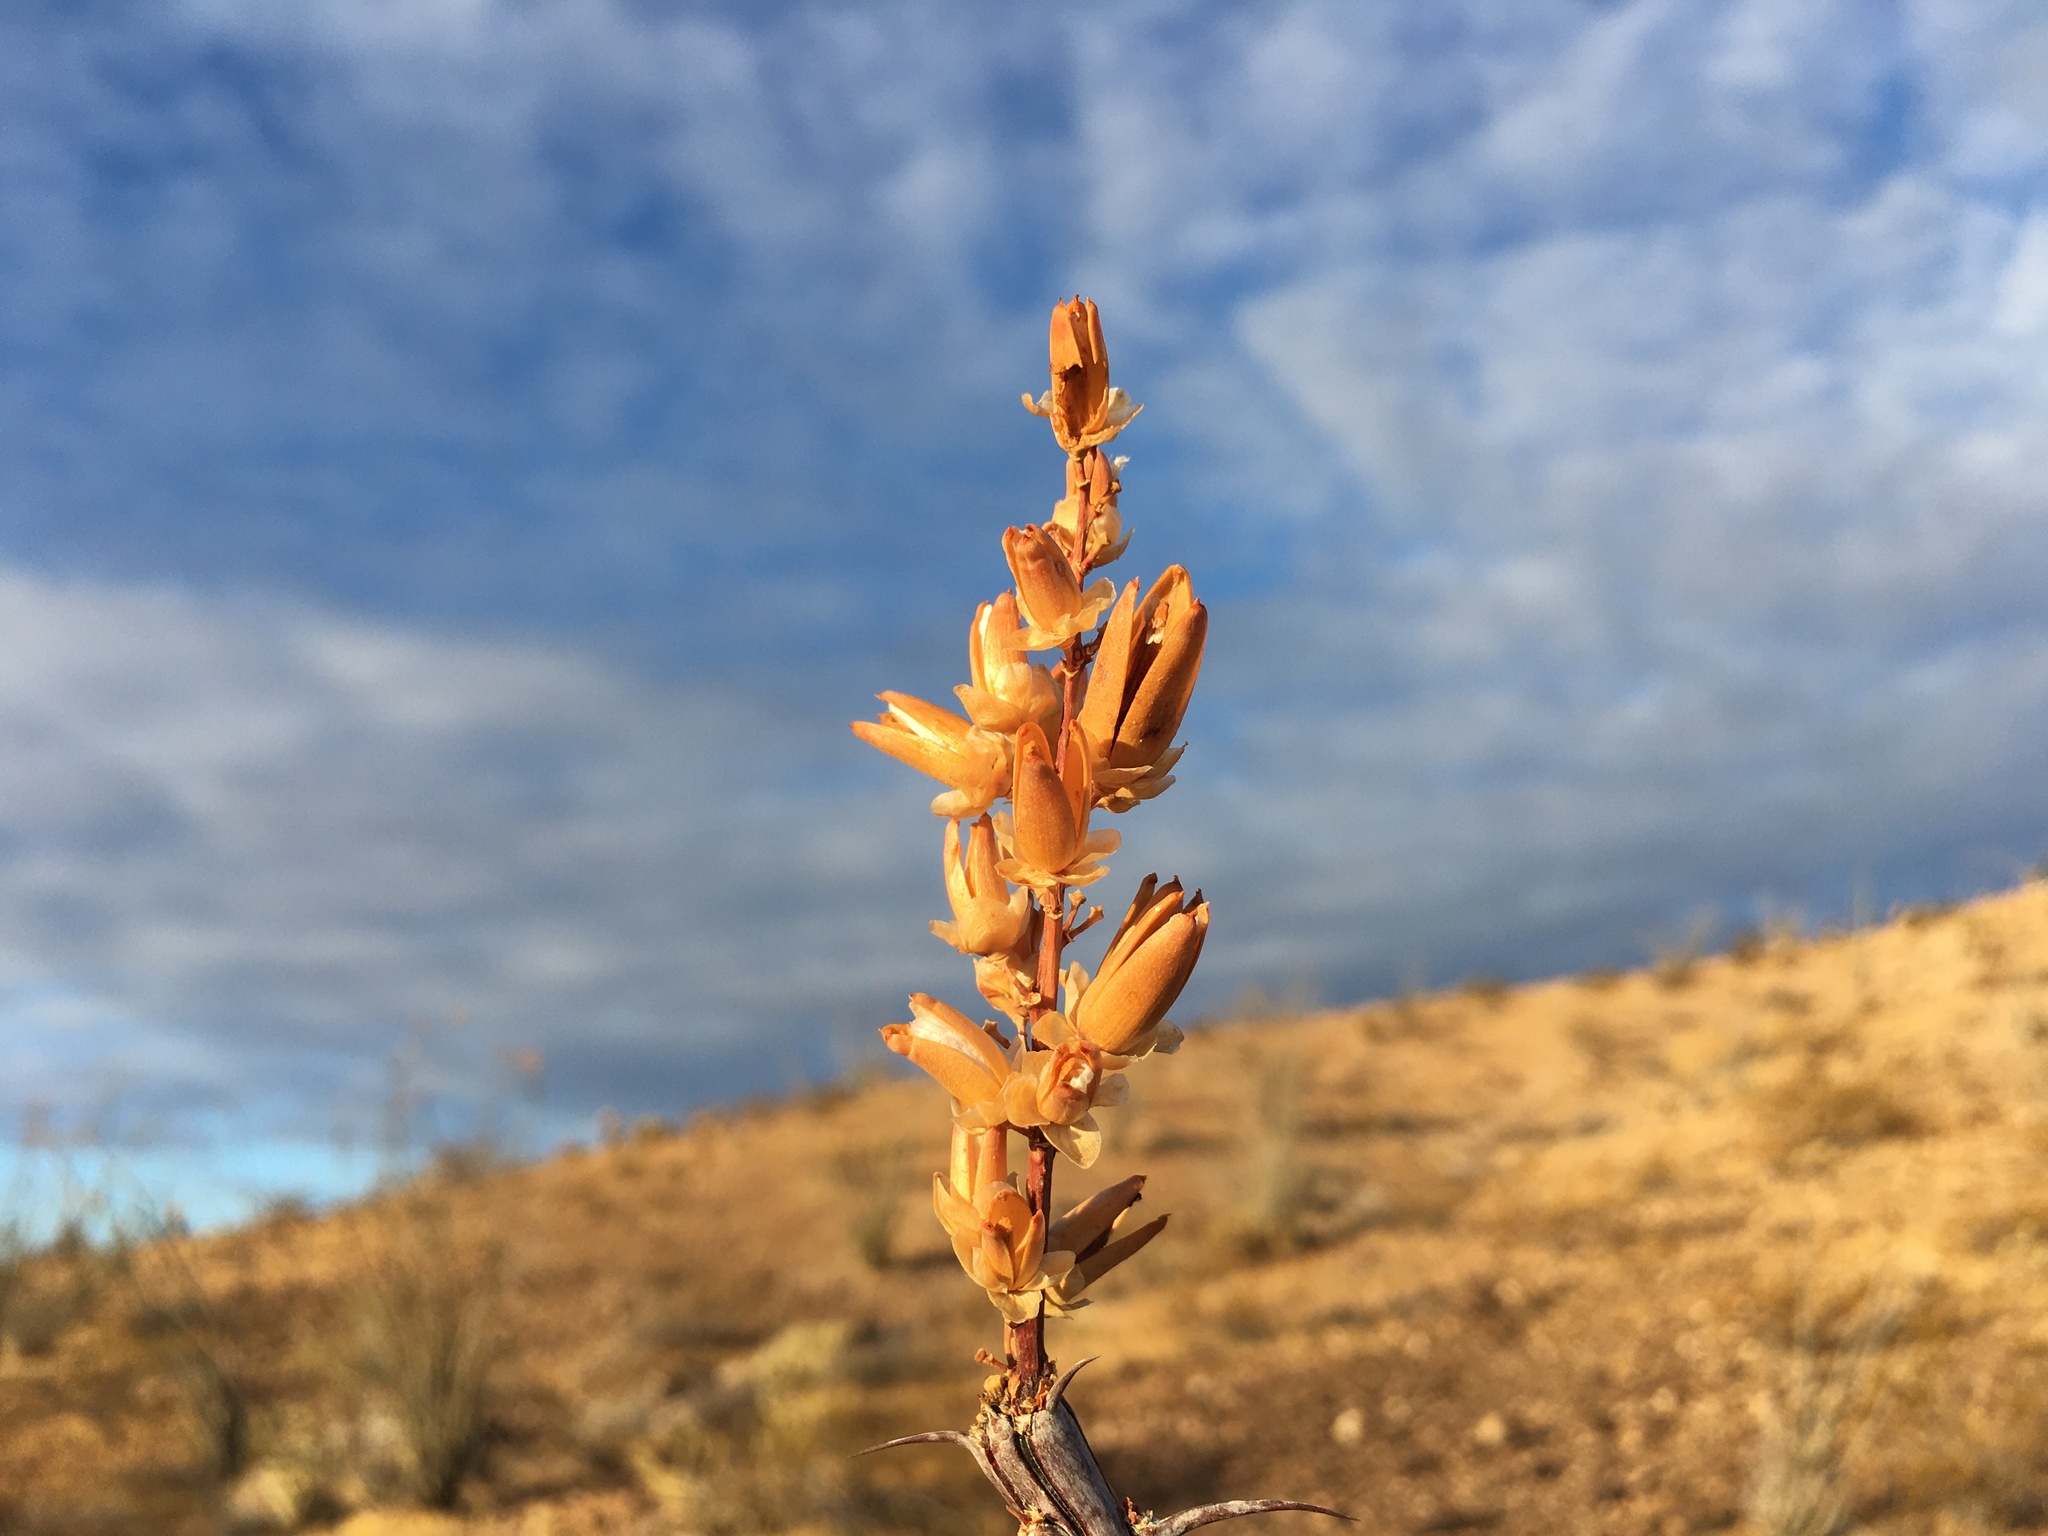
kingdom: Plantae
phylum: Tracheophyta
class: Magnoliopsida
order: Ericales
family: Fouquieriaceae
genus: Fouquieria
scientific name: Fouquieria splendens
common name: Vine-cactus
